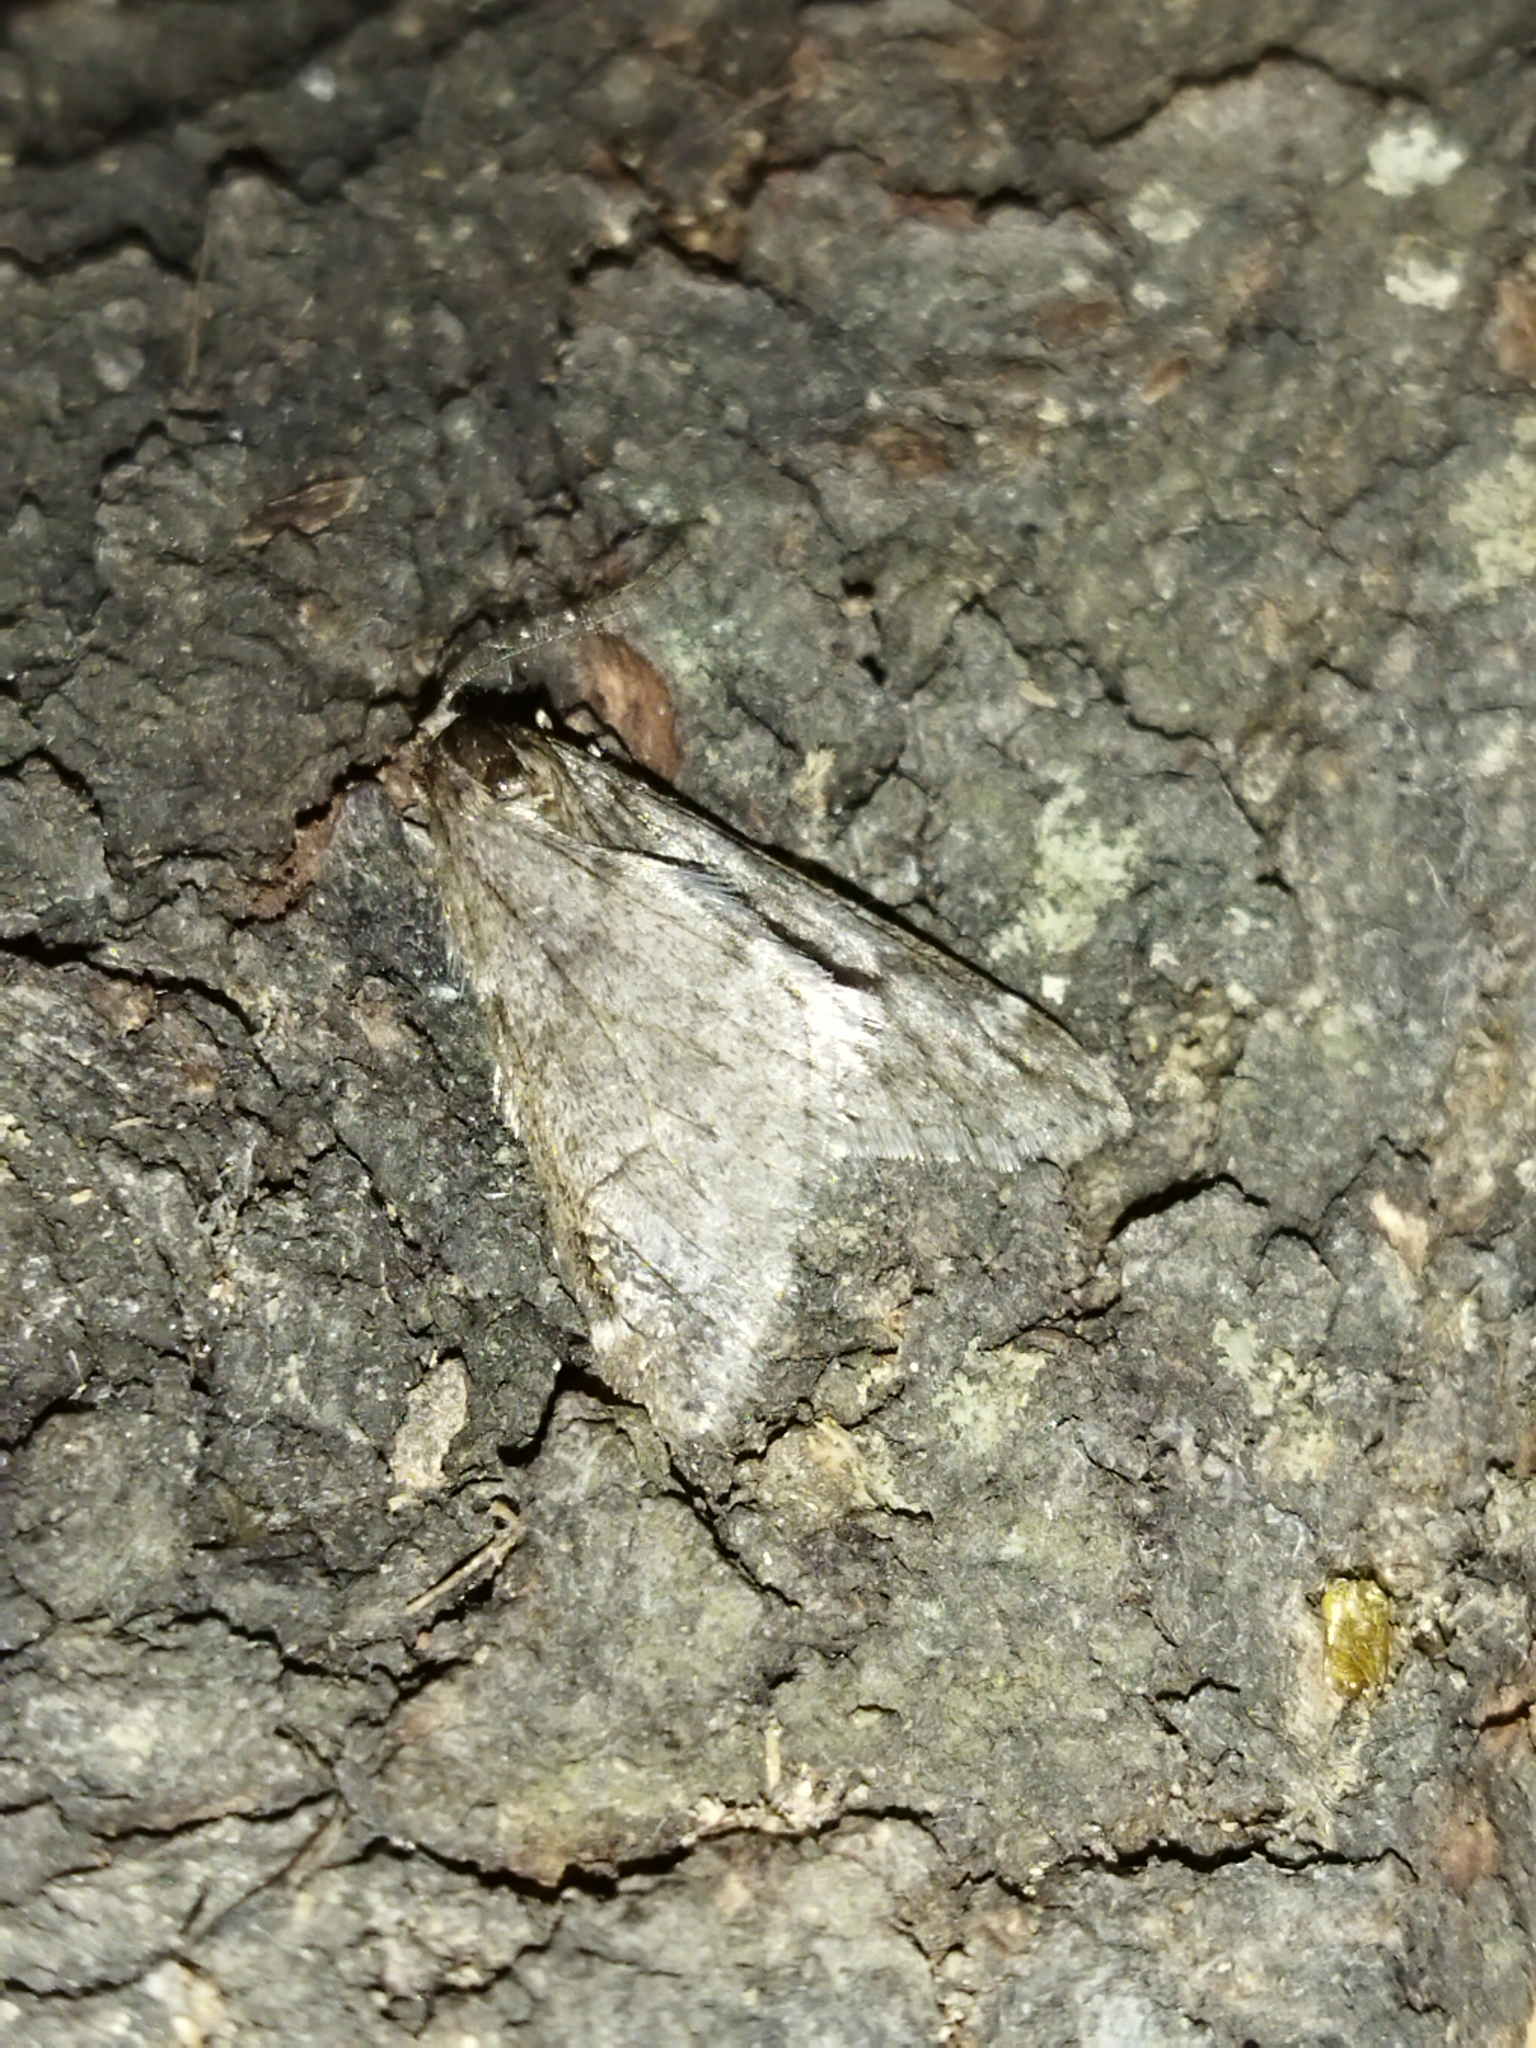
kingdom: Animalia
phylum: Arthropoda
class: Insecta
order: Lepidoptera
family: Geometridae
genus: Alsophila
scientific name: Alsophila aescularia
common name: March moth
